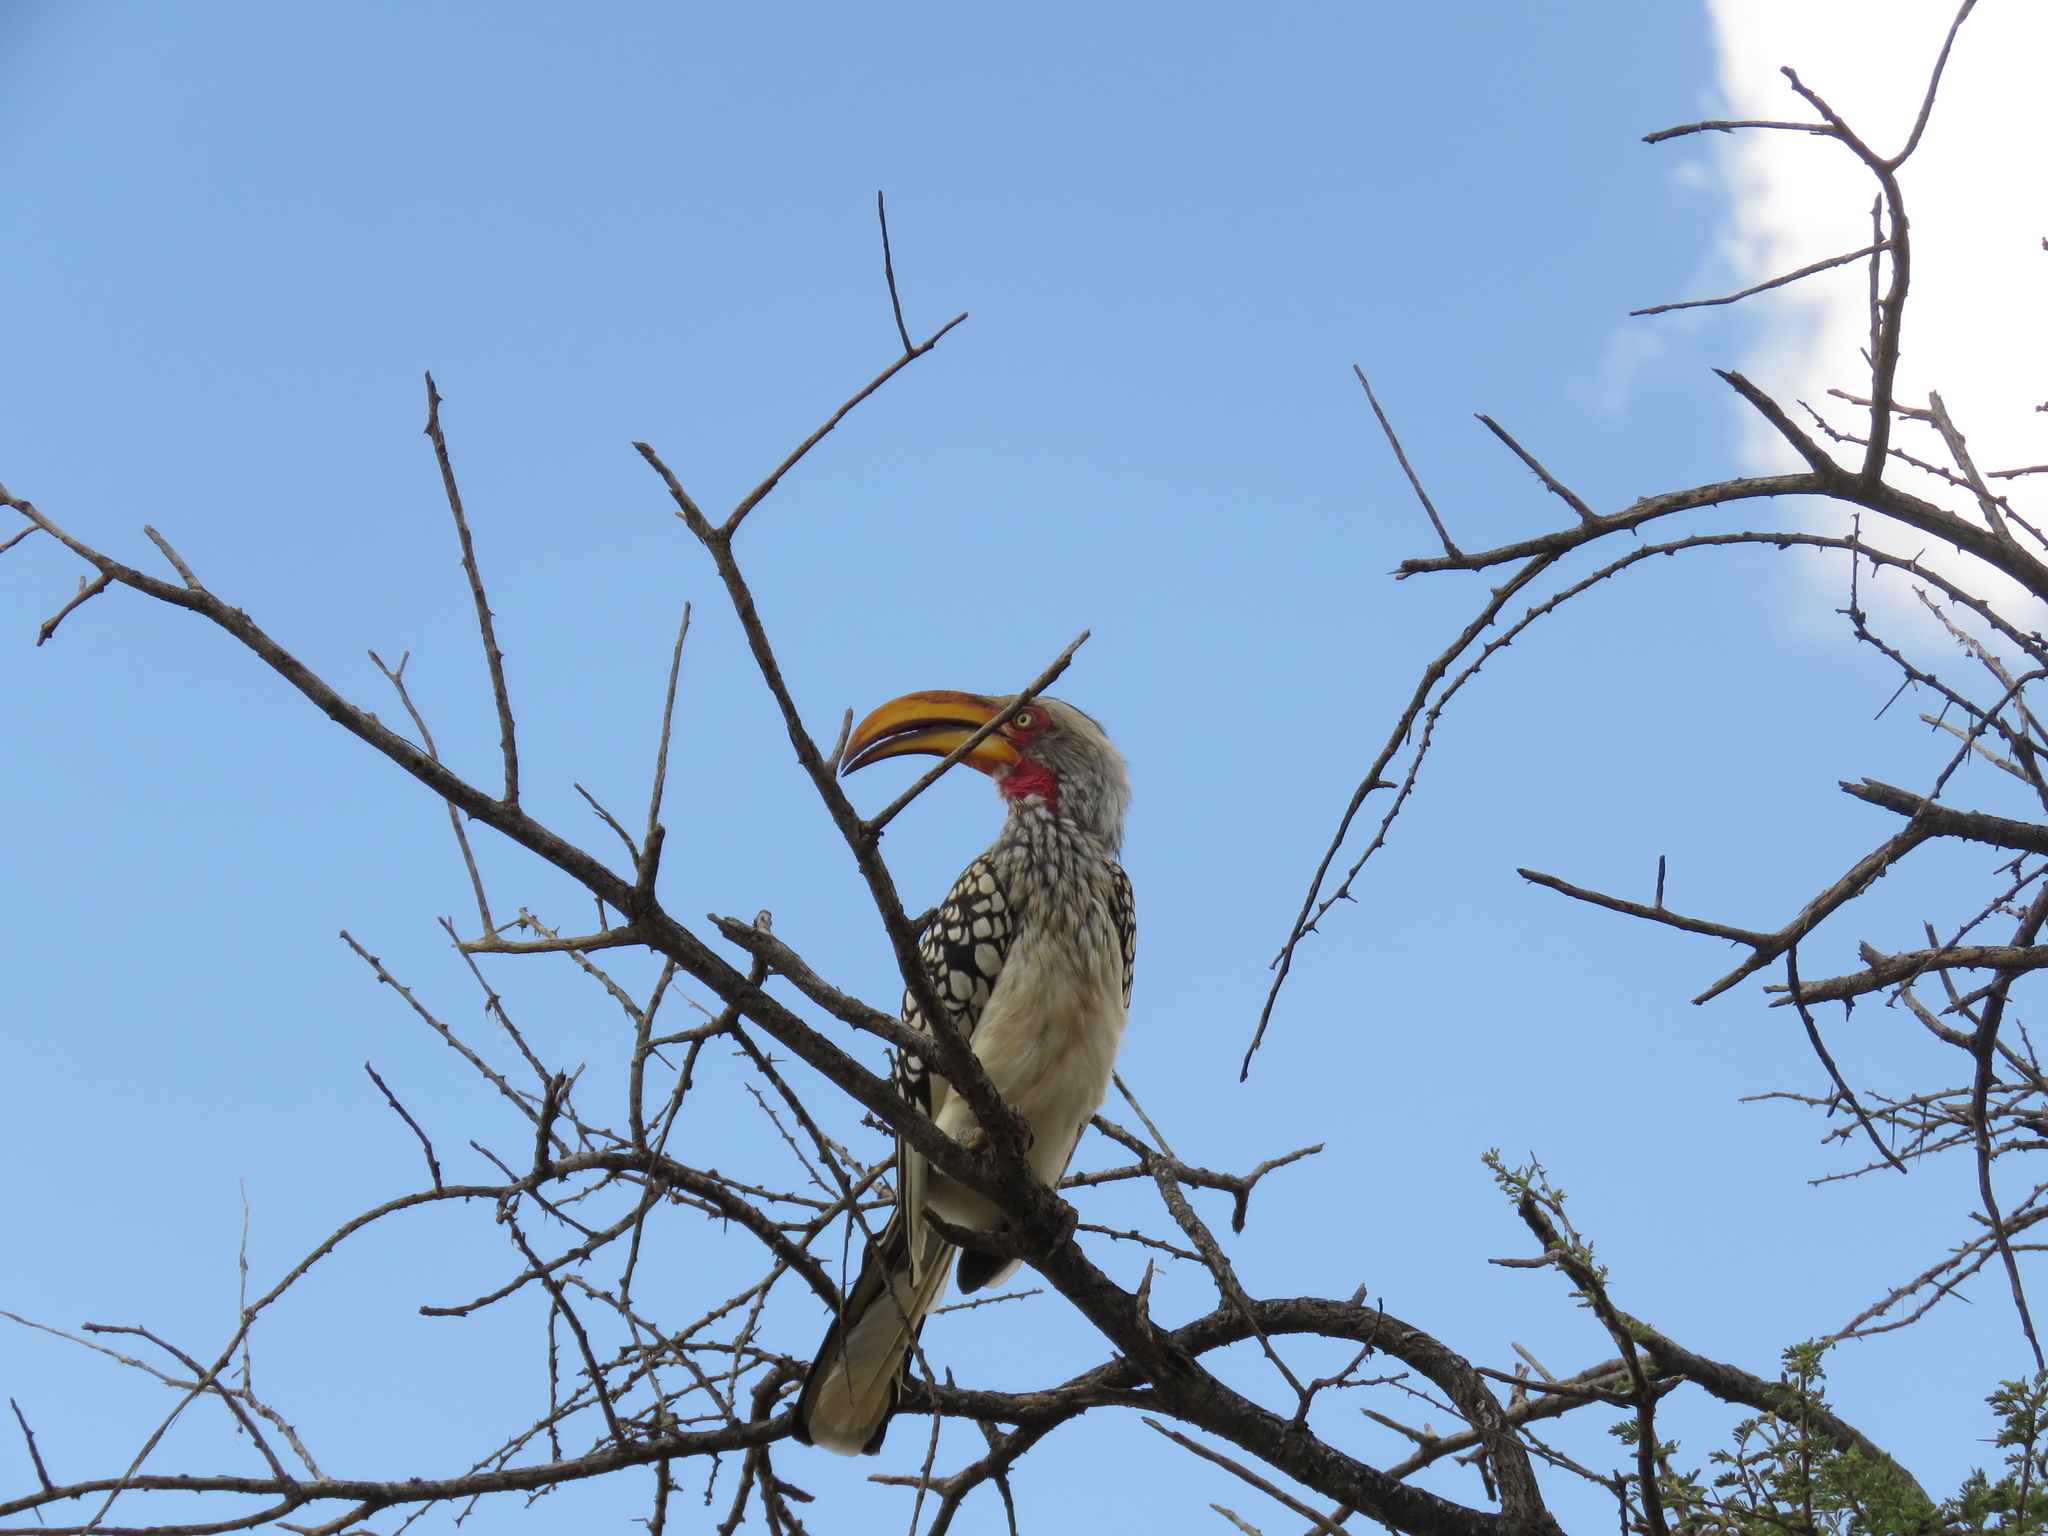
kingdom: Animalia
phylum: Chordata
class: Aves
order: Bucerotiformes
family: Bucerotidae
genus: Tockus
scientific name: Tockus leucomelas
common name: Southern yellow-billed hornbill
